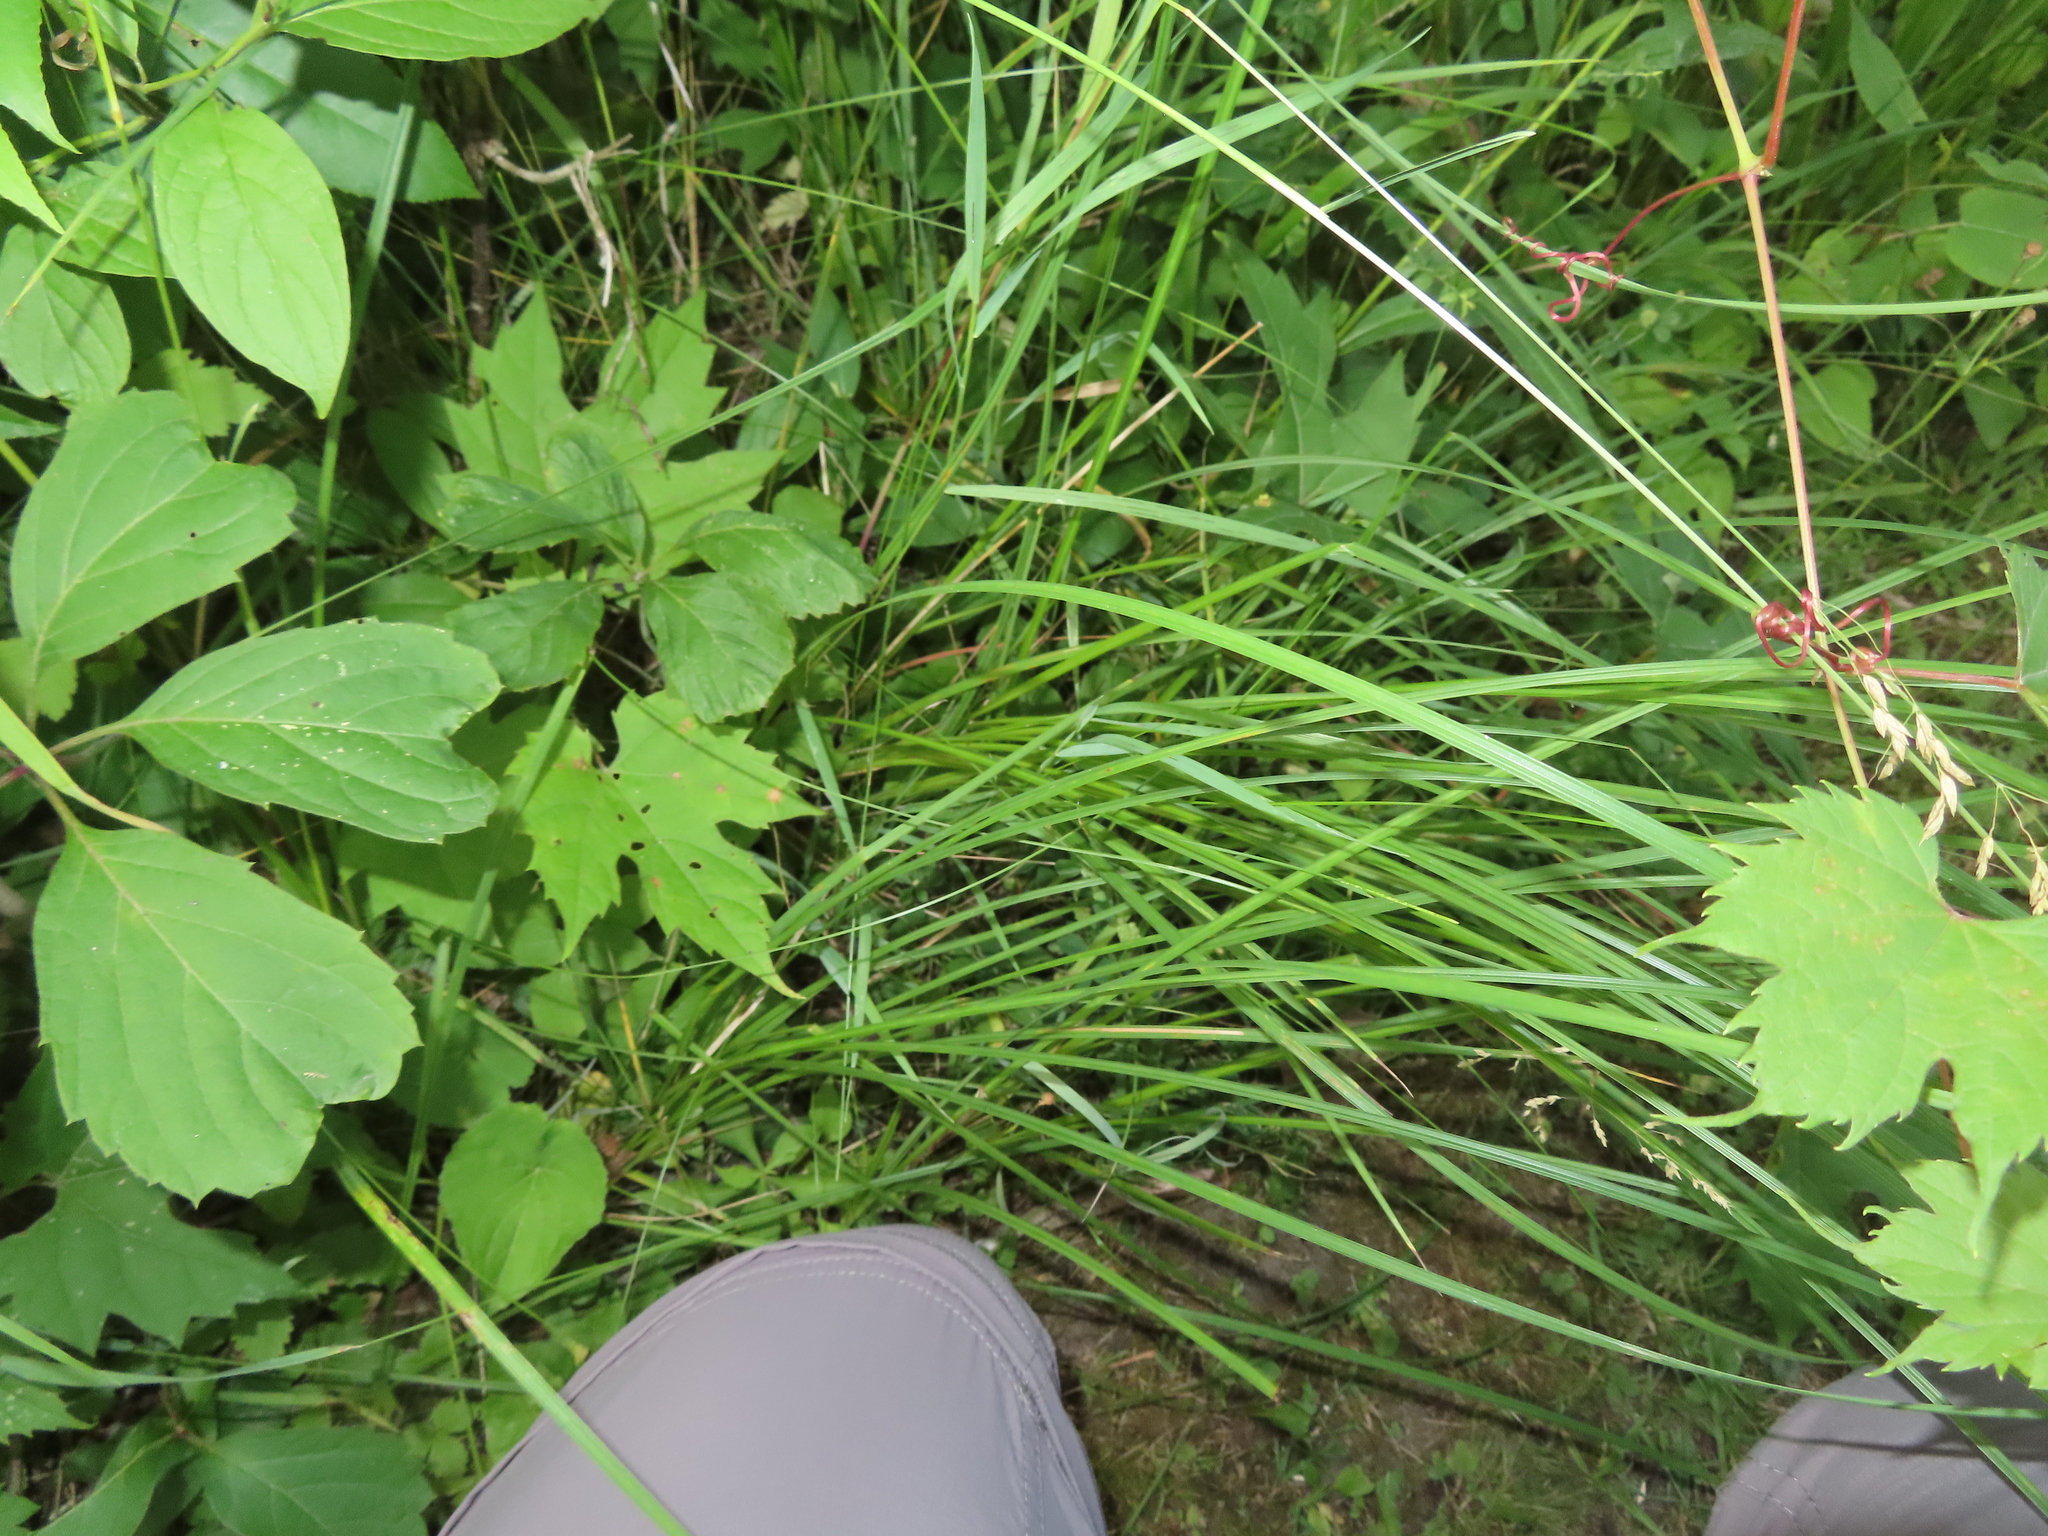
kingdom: Plantae
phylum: Tracheophyta
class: Liliopsida
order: Poales
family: Cyperaceae
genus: Carex
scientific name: Carex granularis
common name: Granular sedge
